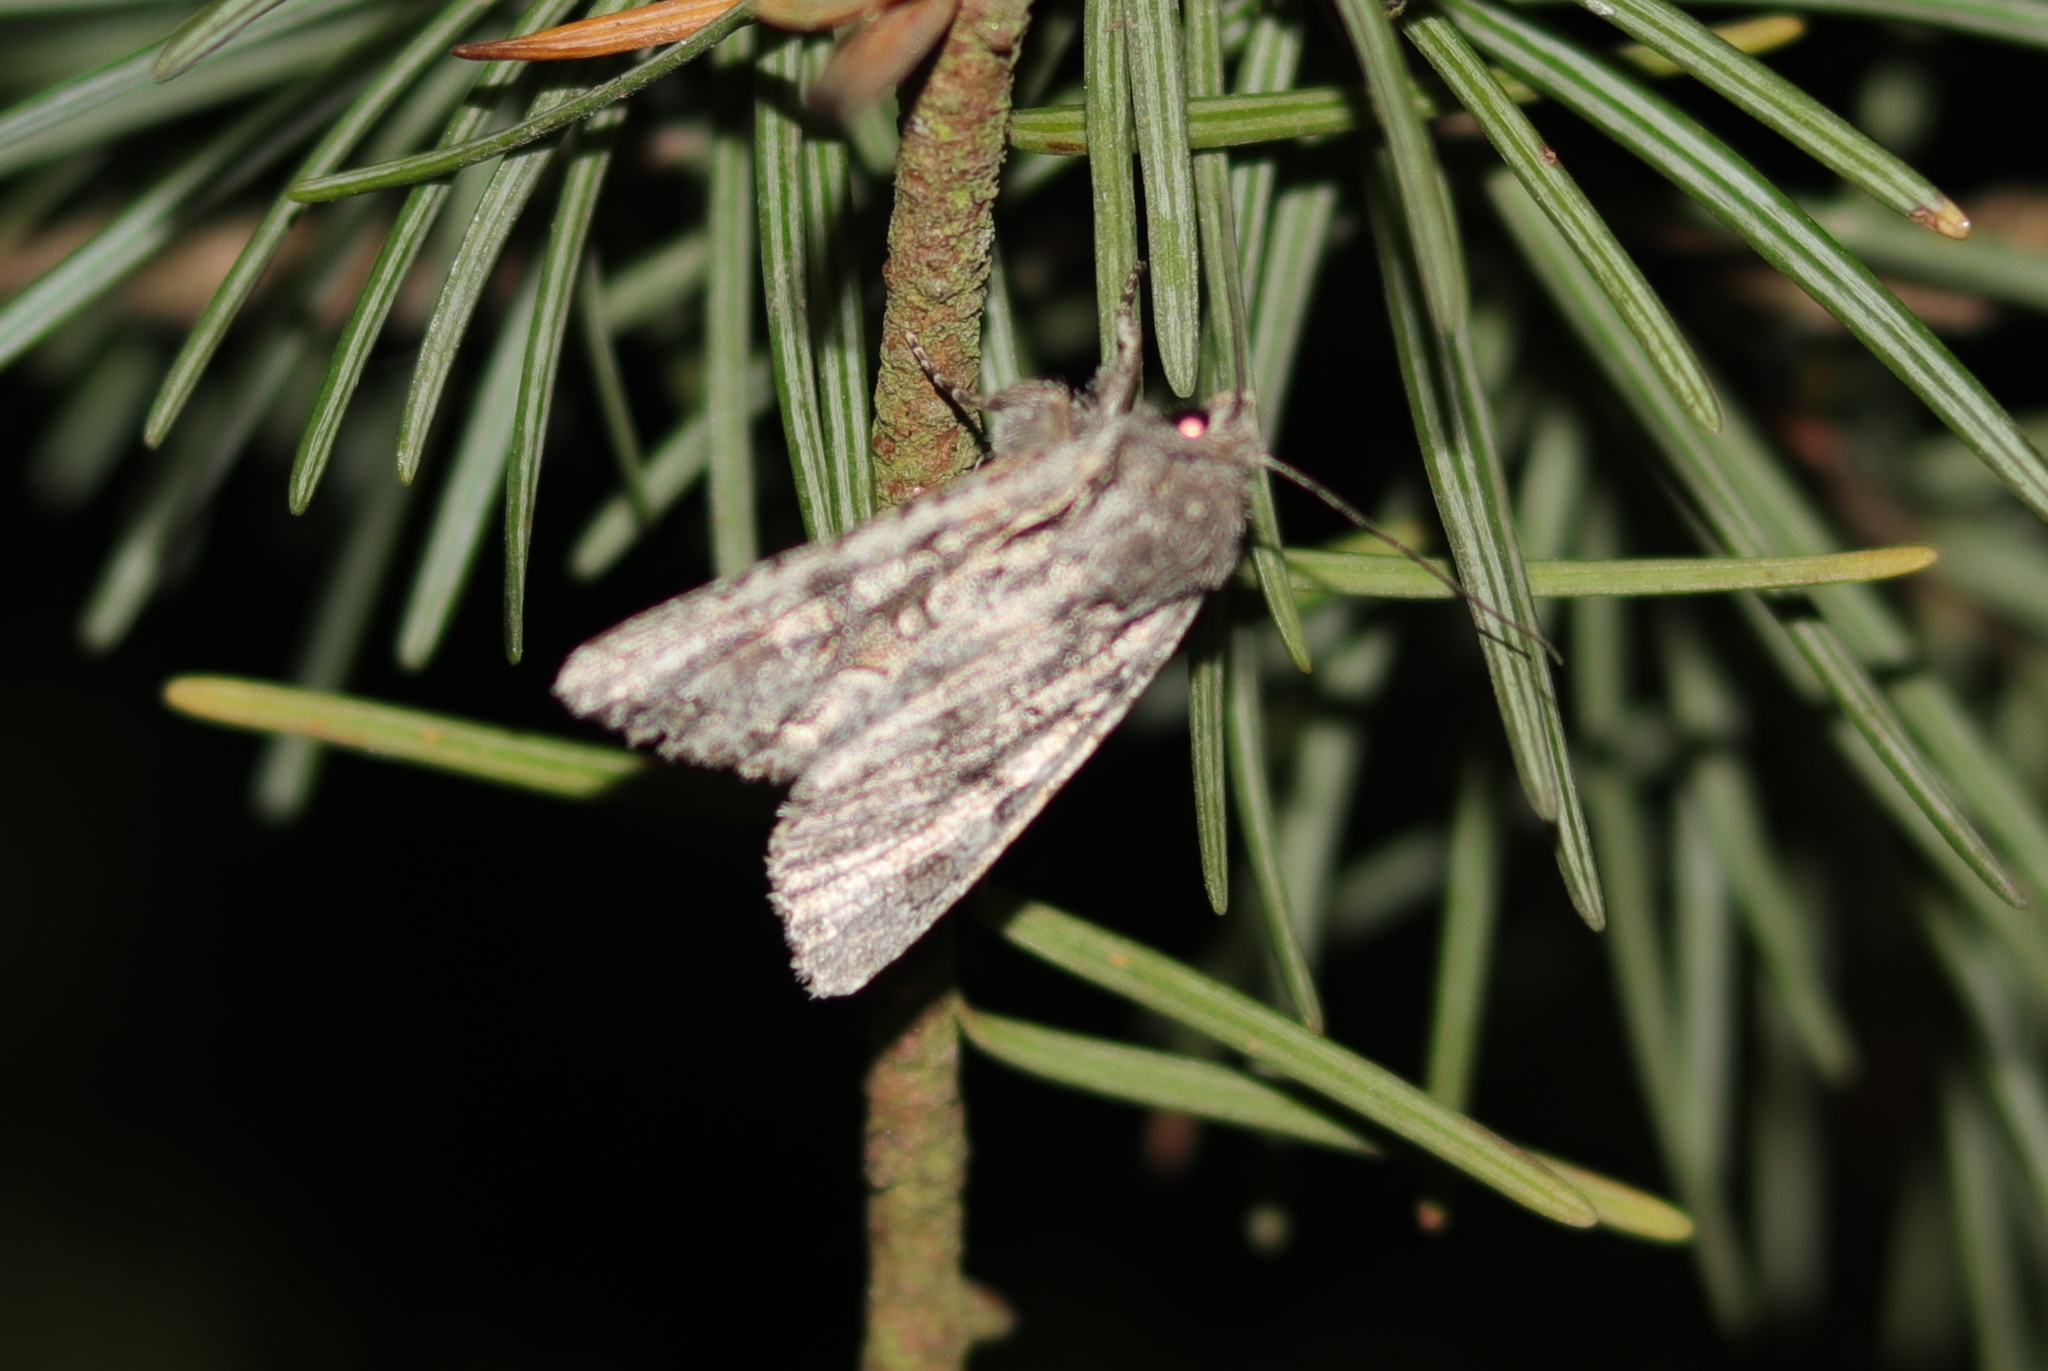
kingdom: Animalia
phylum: Arthropoda
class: Insecta
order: Lepidoptera
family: Noctuidae
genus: Ichneutica
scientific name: Ichneutica mutans
